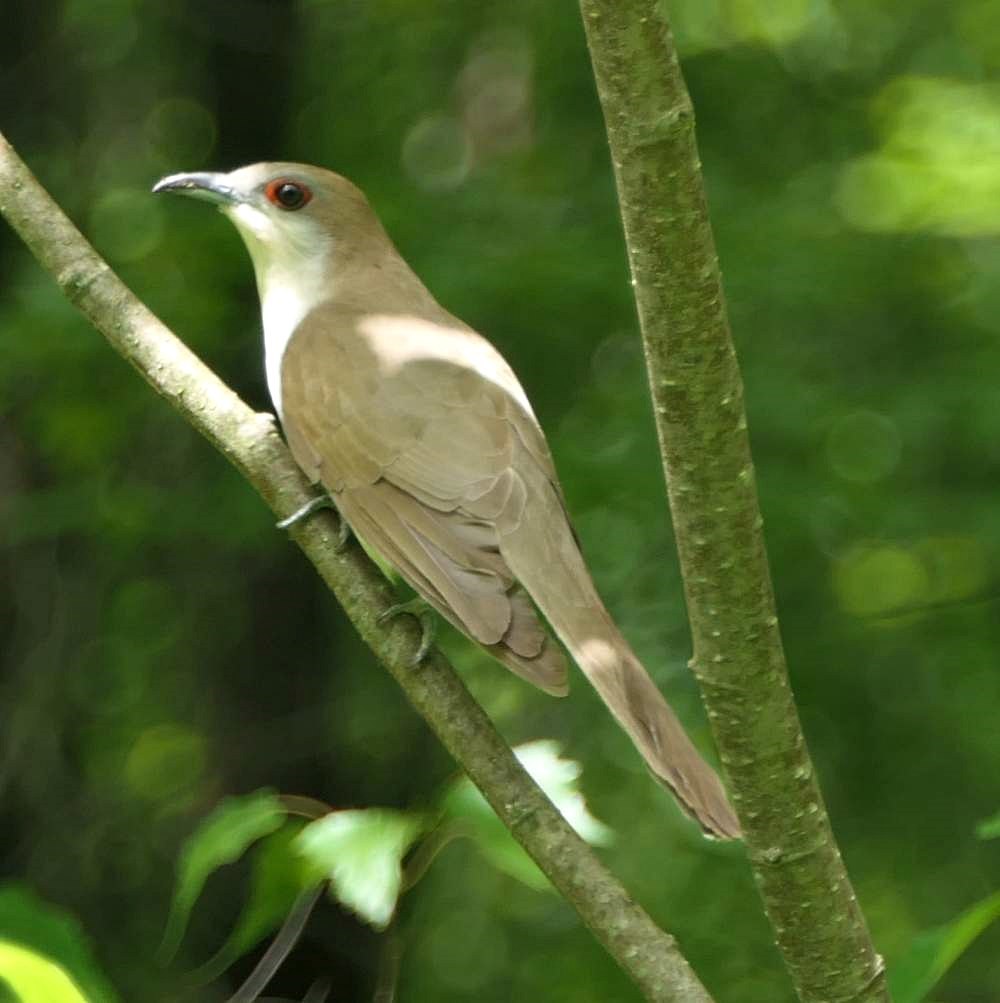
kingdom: Animalia
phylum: Chordata
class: Aves
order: Cuculiformes
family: Cuculidae
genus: Coccyzus
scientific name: Coccyzus erythropthalmus
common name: Black-billed cuckoo
